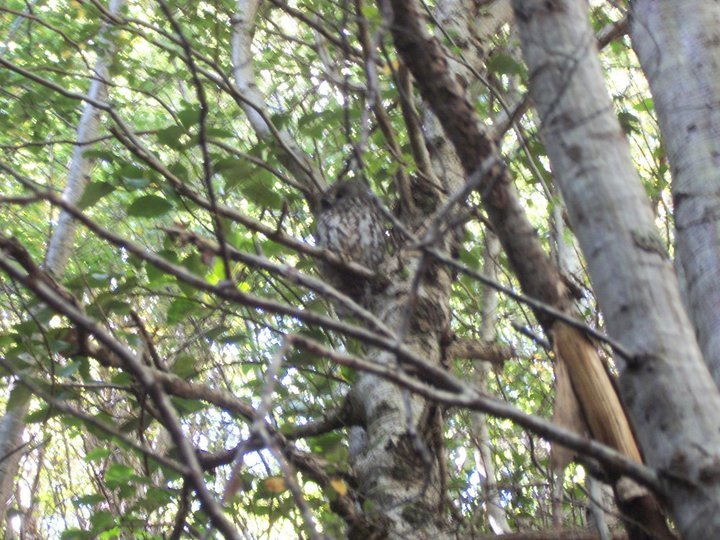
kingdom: Animalia
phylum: Chordata
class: Aves
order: Strigiformes
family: Strigidae
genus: Ninox
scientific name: Ninox novaeseelandiae
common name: Morepork
